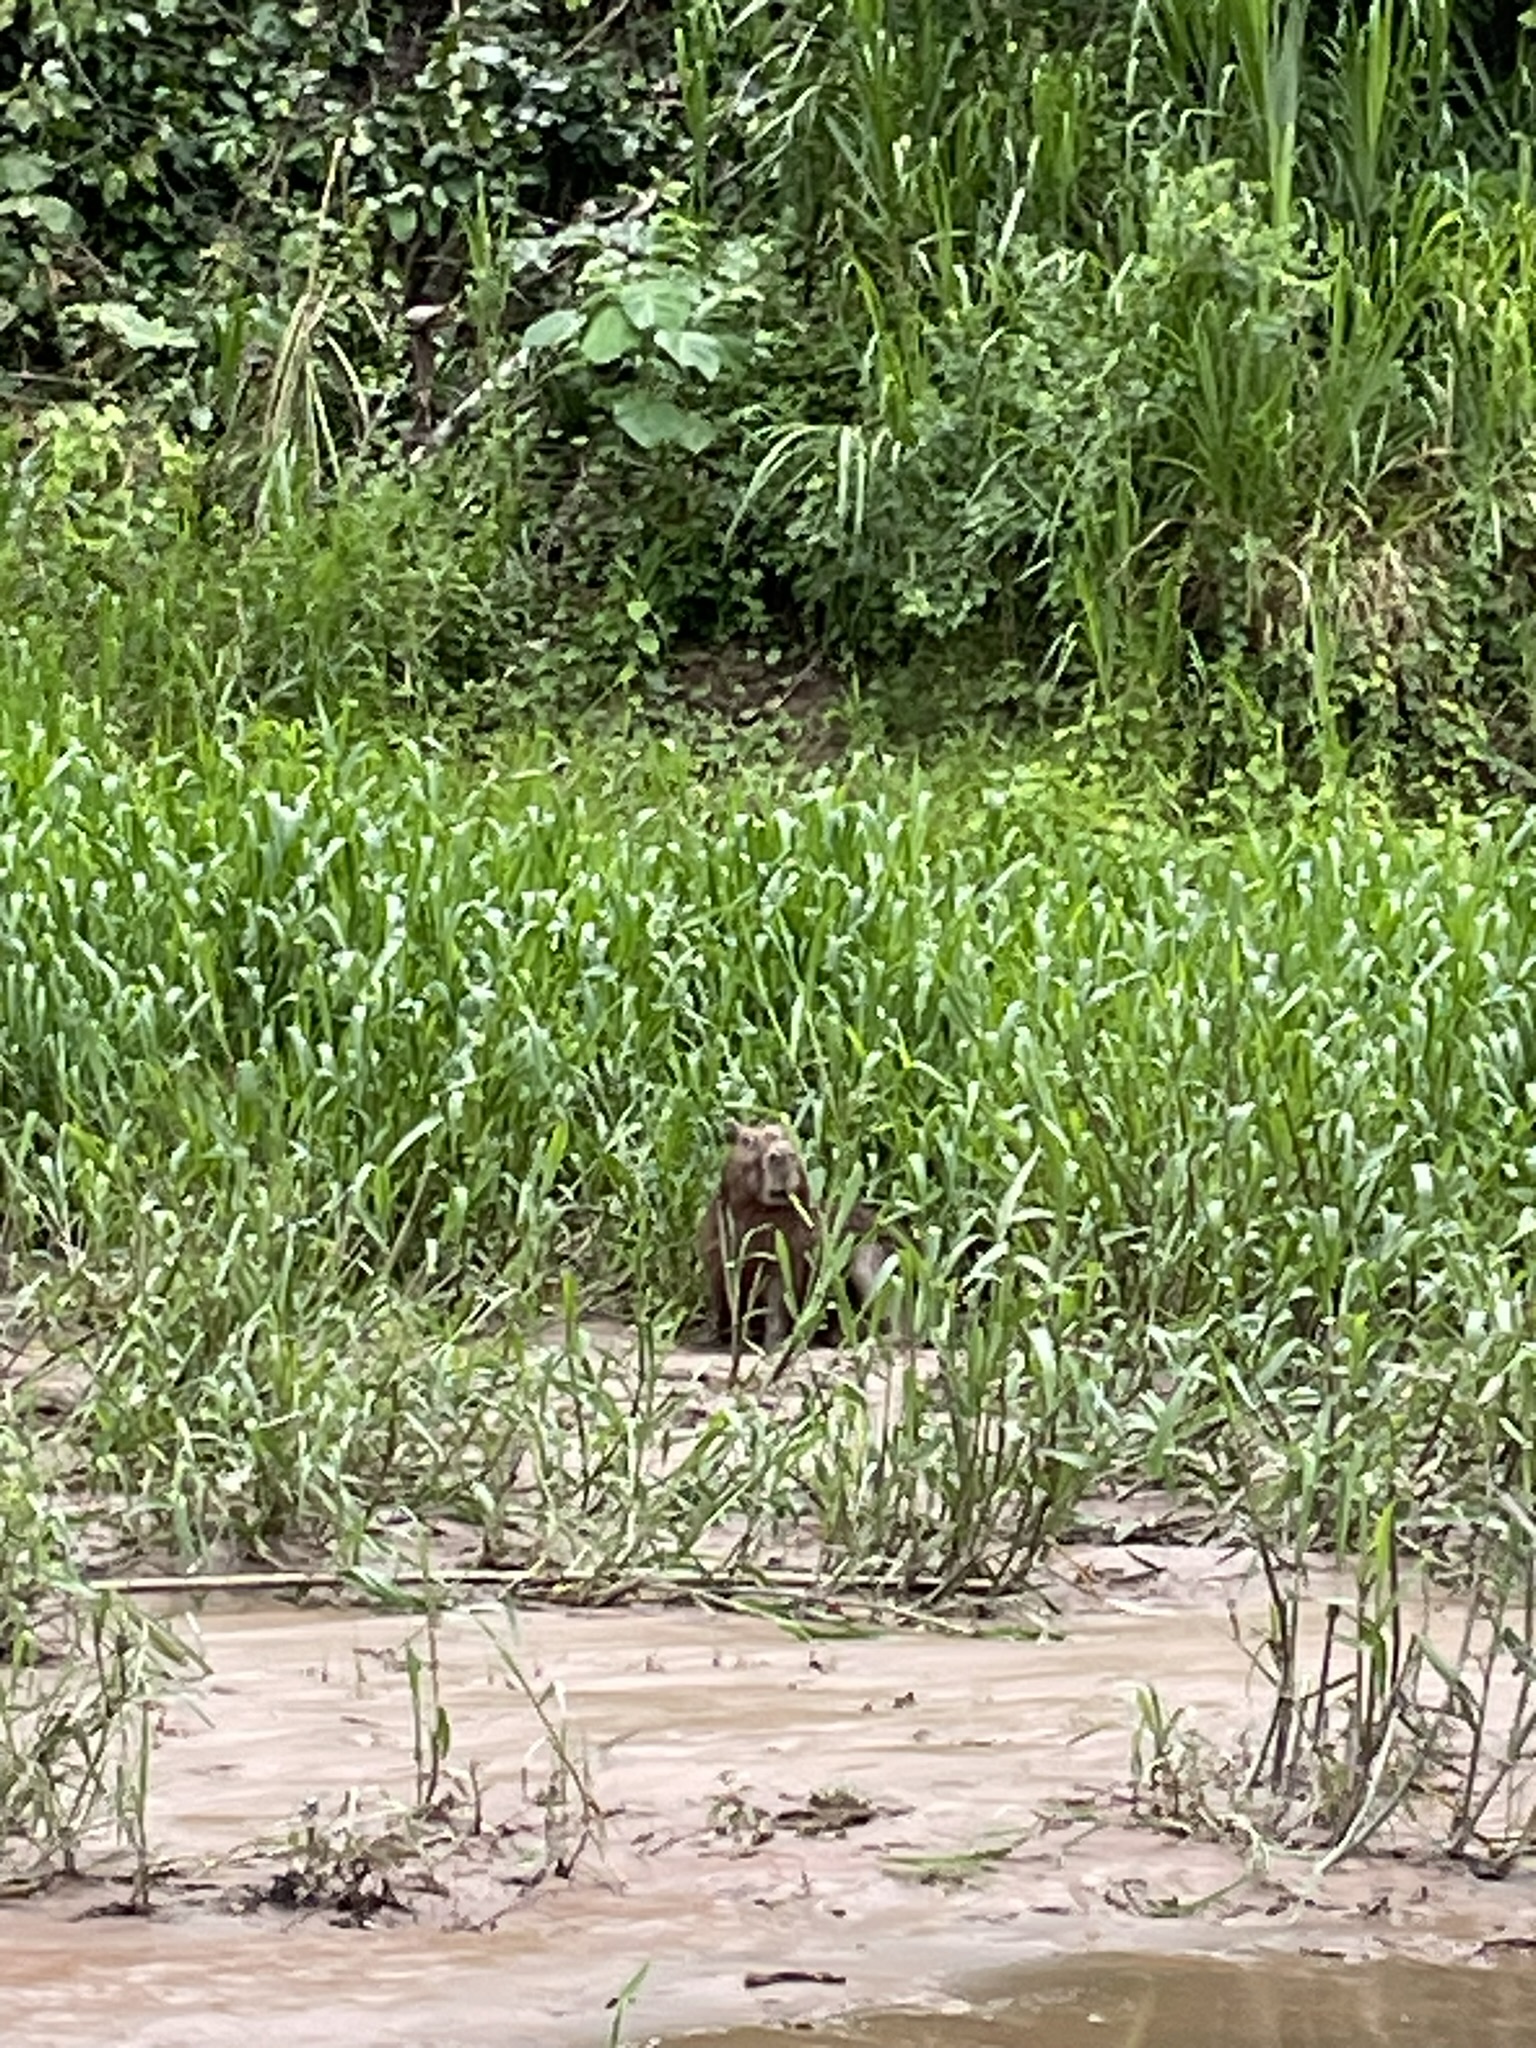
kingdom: Animalia
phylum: Chordata
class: Mammalia
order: Rodentia
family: Caviidae
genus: Hydrochoerus
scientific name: Hydrochoerus hydrochaeris
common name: Capybara
